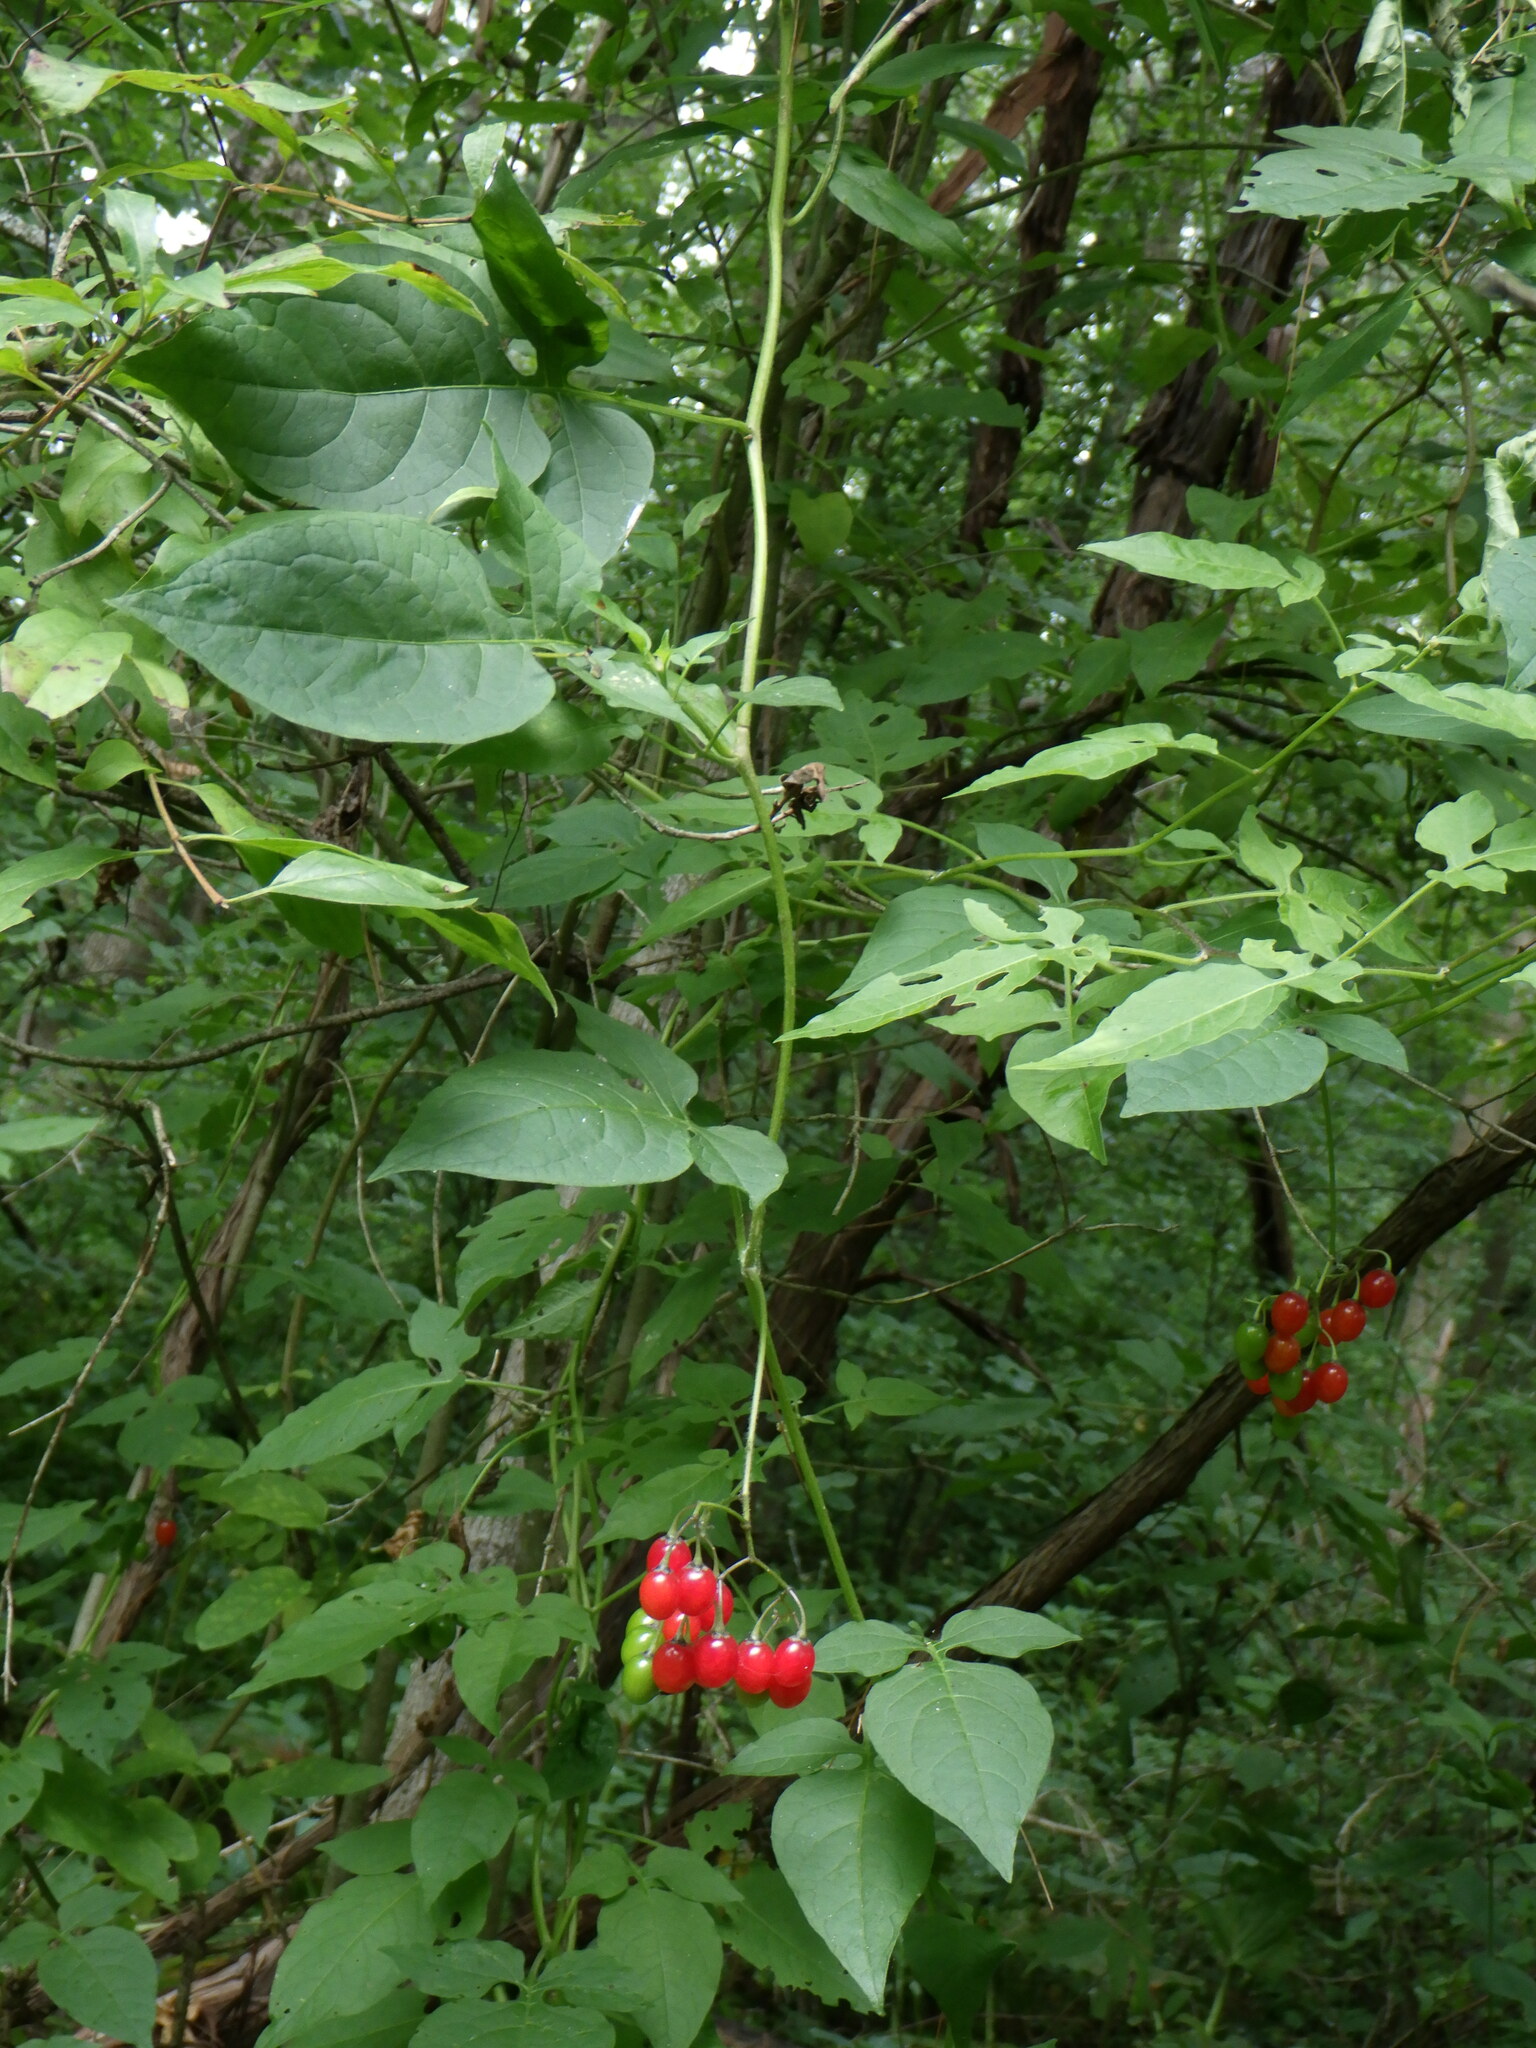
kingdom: Plantae
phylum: Tracheophyta
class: Magnoliopsida
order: Solanales
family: Solanaceae
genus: Solanum
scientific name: Solanum dulcamara
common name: Climbing nightshade
